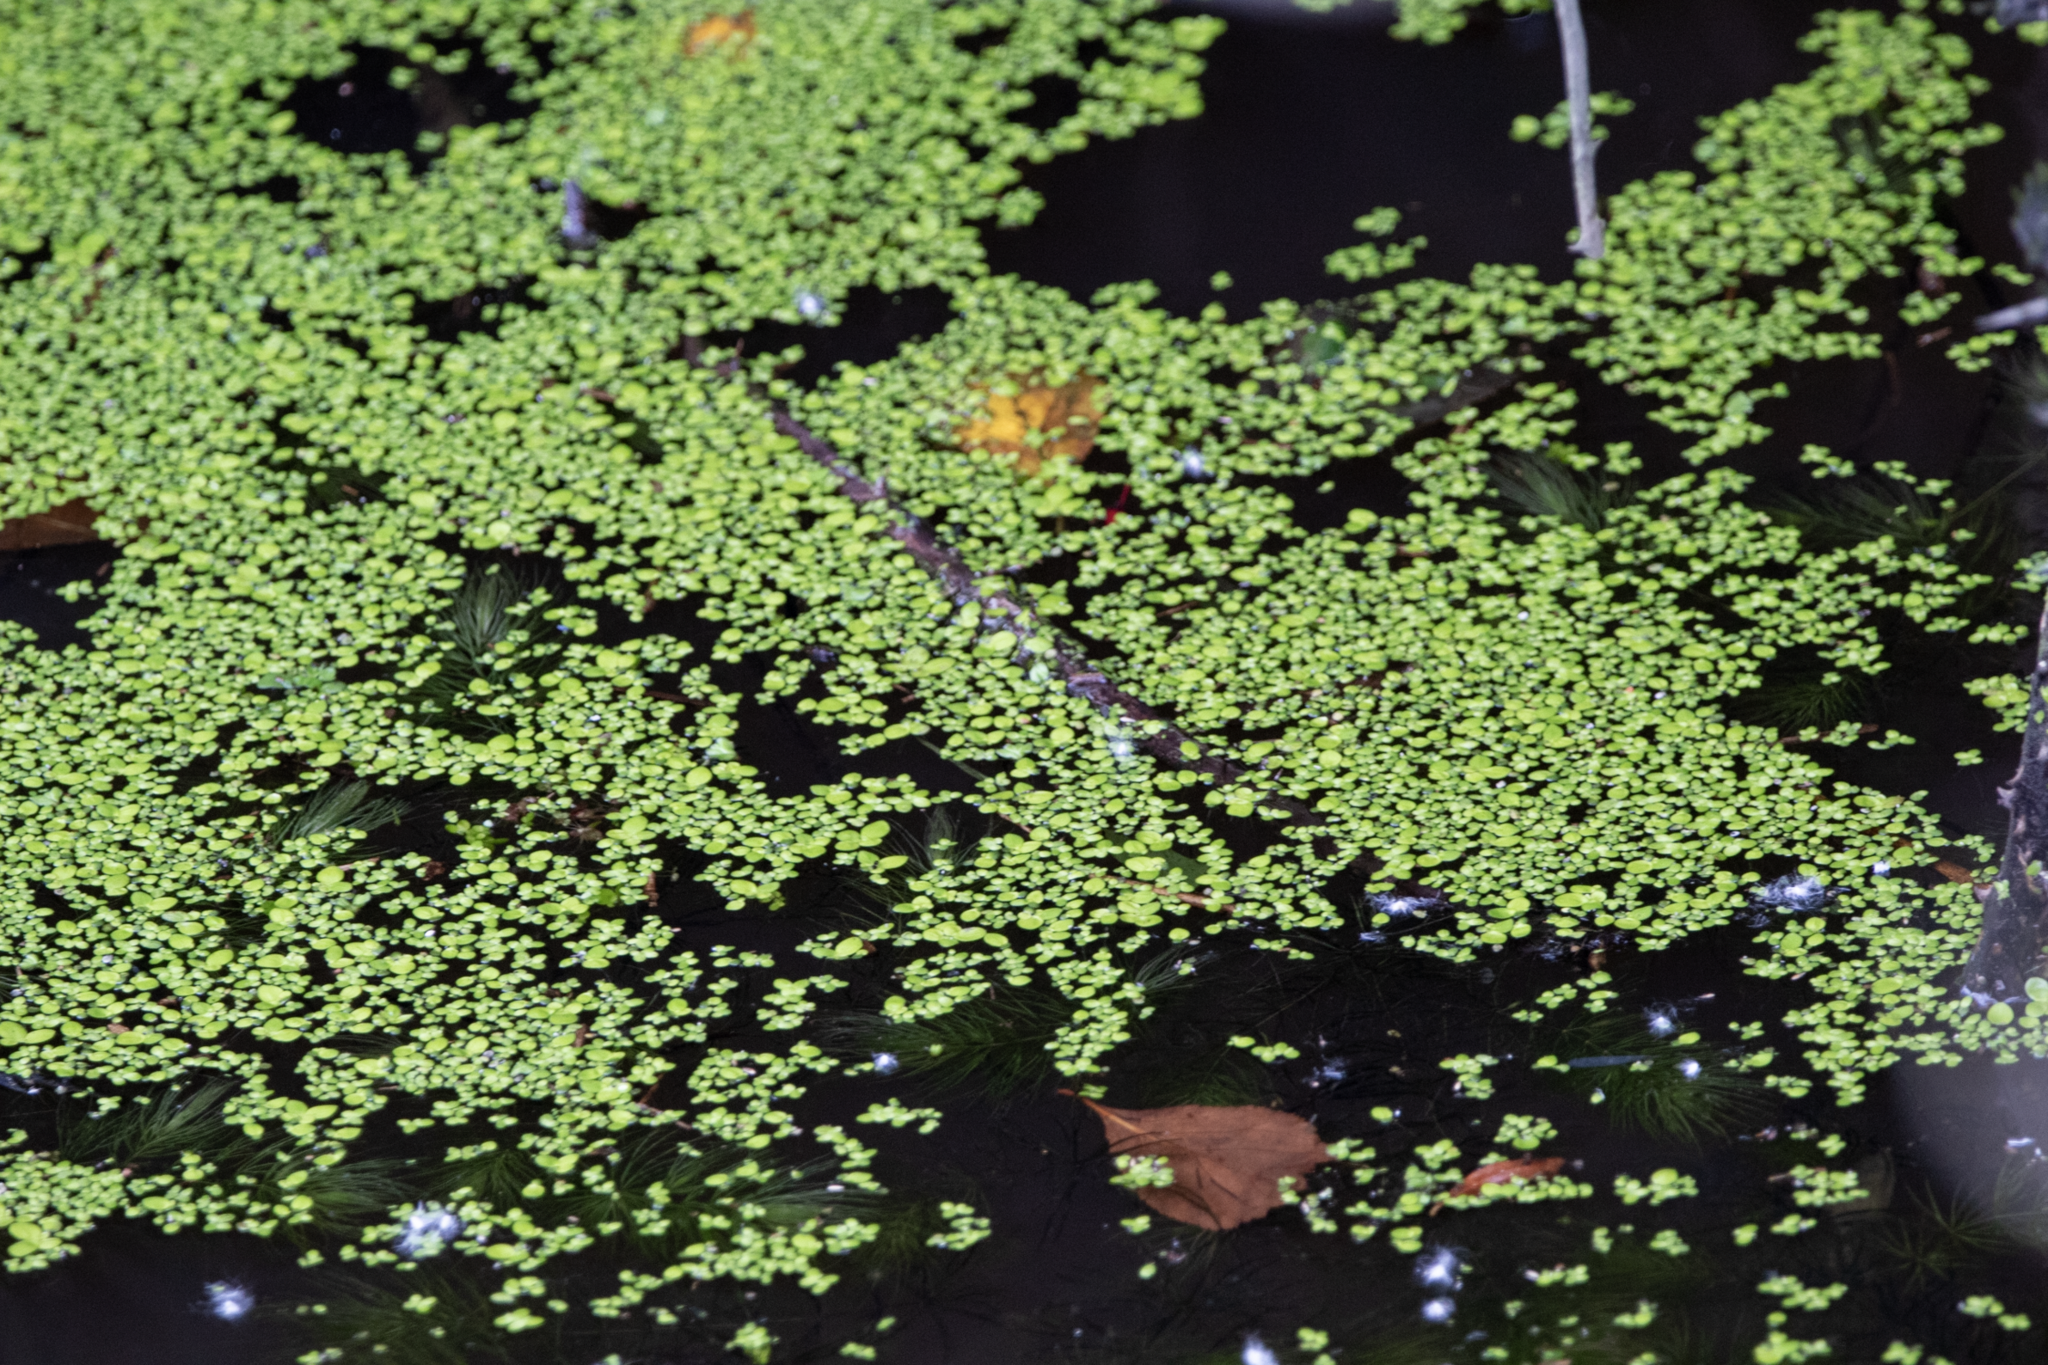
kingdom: Plantae
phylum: Tracheophyta
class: Liliopsida
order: Alismatales
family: Araceae
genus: Lemna
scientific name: Lemna minor
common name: Common duckweed
